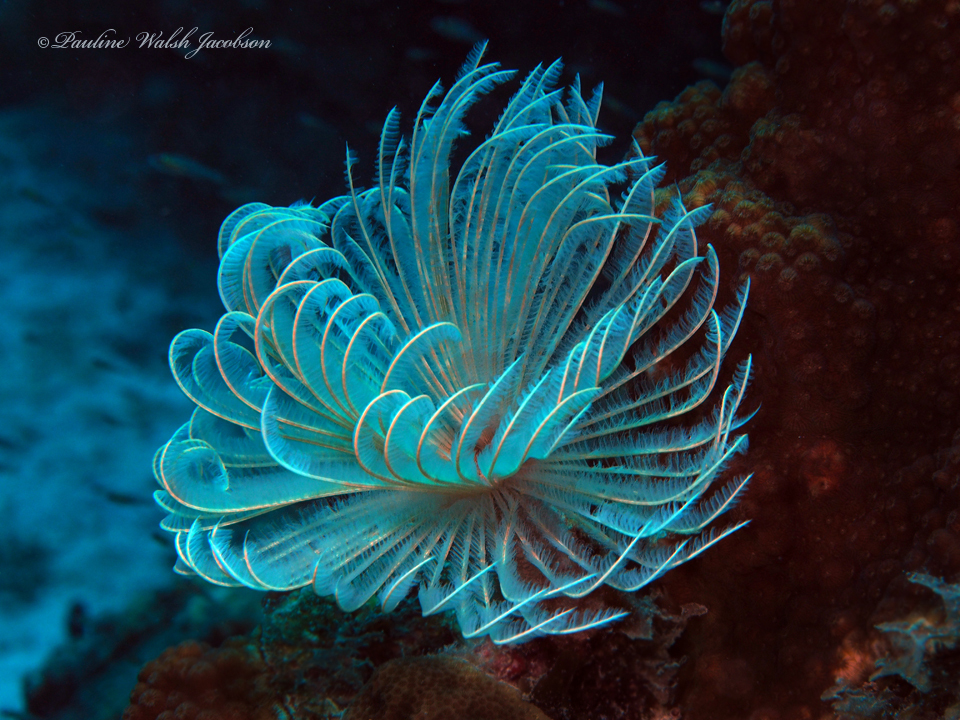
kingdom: Animalia
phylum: Annelida
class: Polychaeta
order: Sabellida
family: Sabellidae
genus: Sabellastarte
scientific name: Sabellastarte magnifica
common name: Giant feather-duster worm
